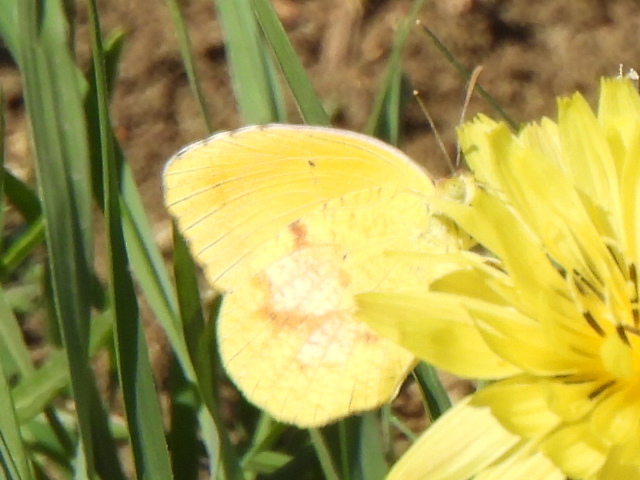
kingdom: Animalia
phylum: Arthropoda
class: Insecta
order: Lepidoptera
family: Pieridae
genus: Abaeis
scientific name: Abaeis nicippe
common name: Sleepy orange
